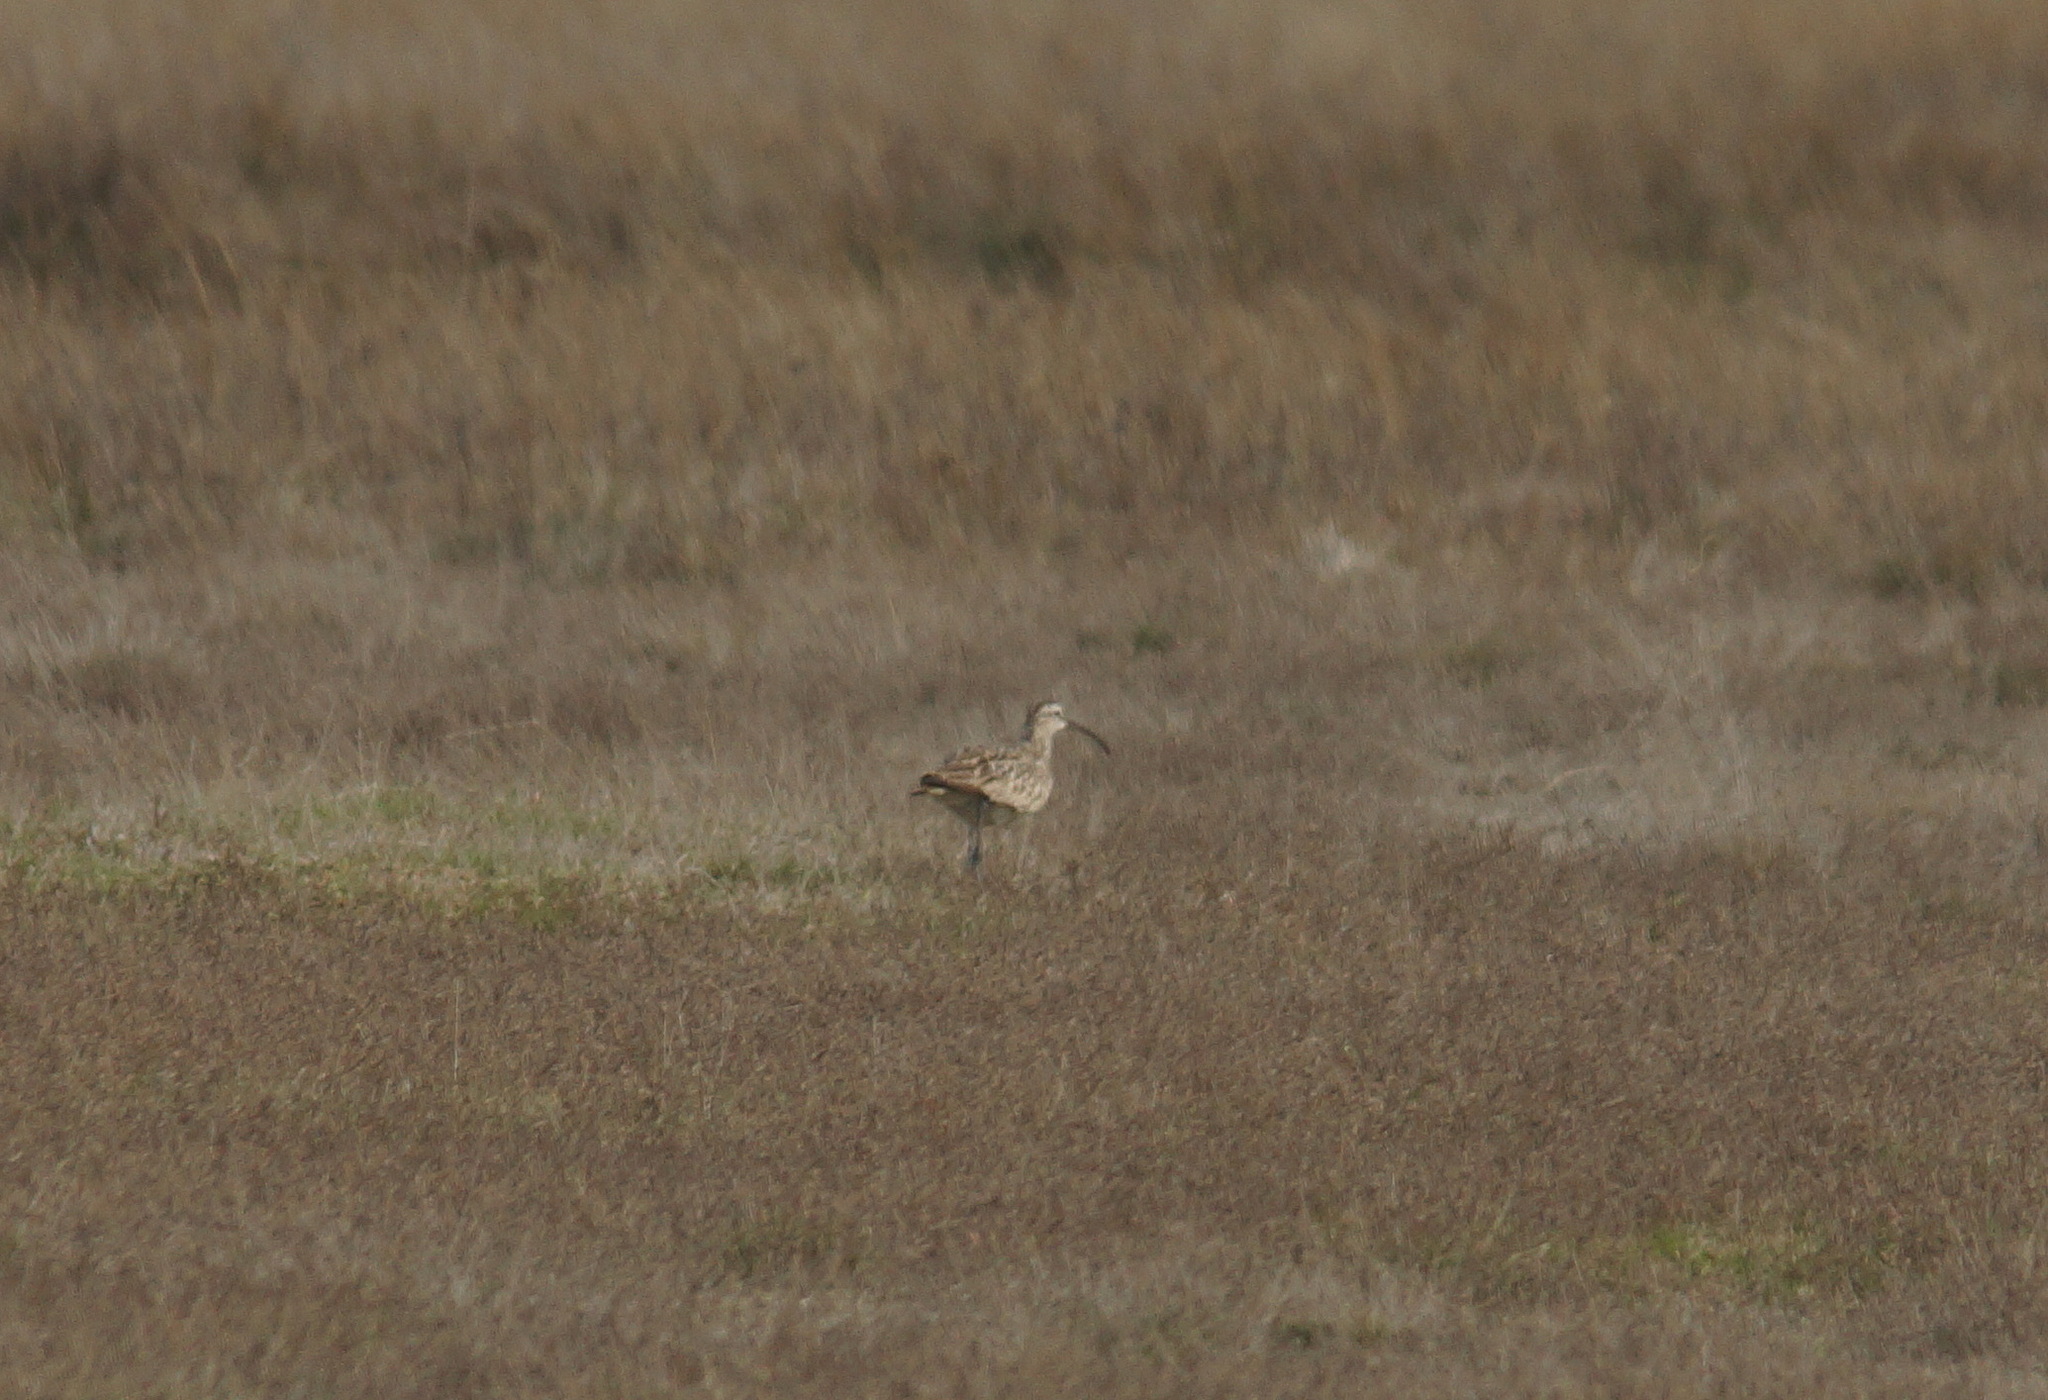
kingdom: Animalia
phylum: Chordata
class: Aves
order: Charadriiformes
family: Scolopacidae
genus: Numenius
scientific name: Numenius phaeopus
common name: Whimbrel
